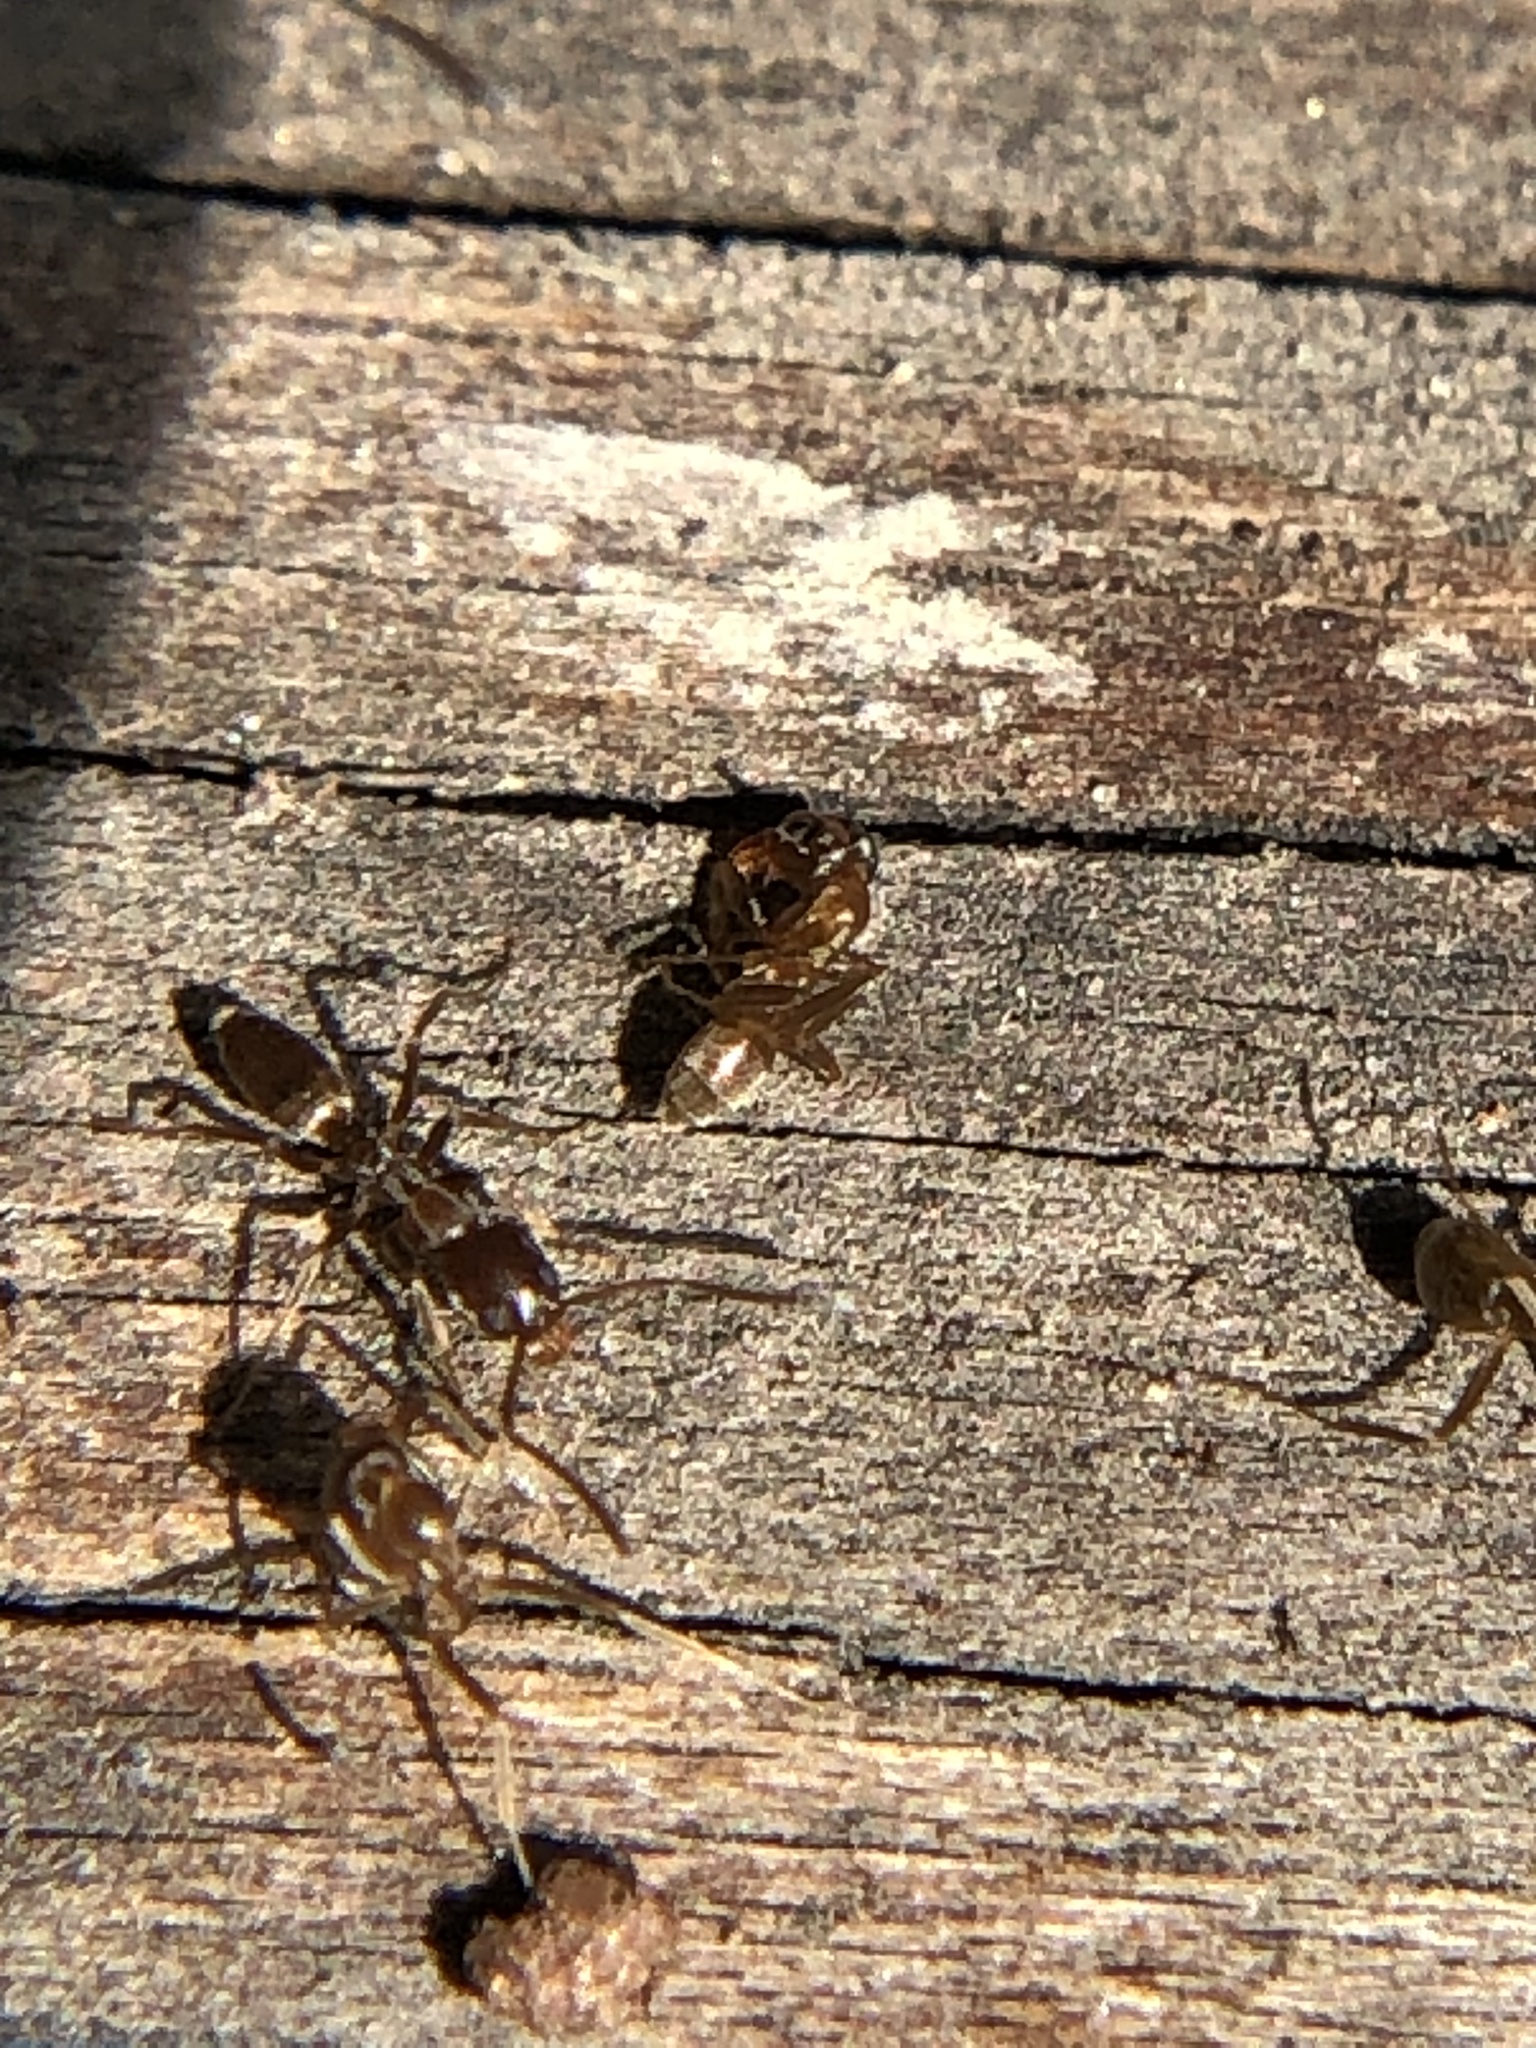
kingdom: Animalia
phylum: Arthropoda
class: Insecta
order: Hymenoptera
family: Formicidae
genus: Linepithema
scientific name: Linepithema humile
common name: Argentine ant
